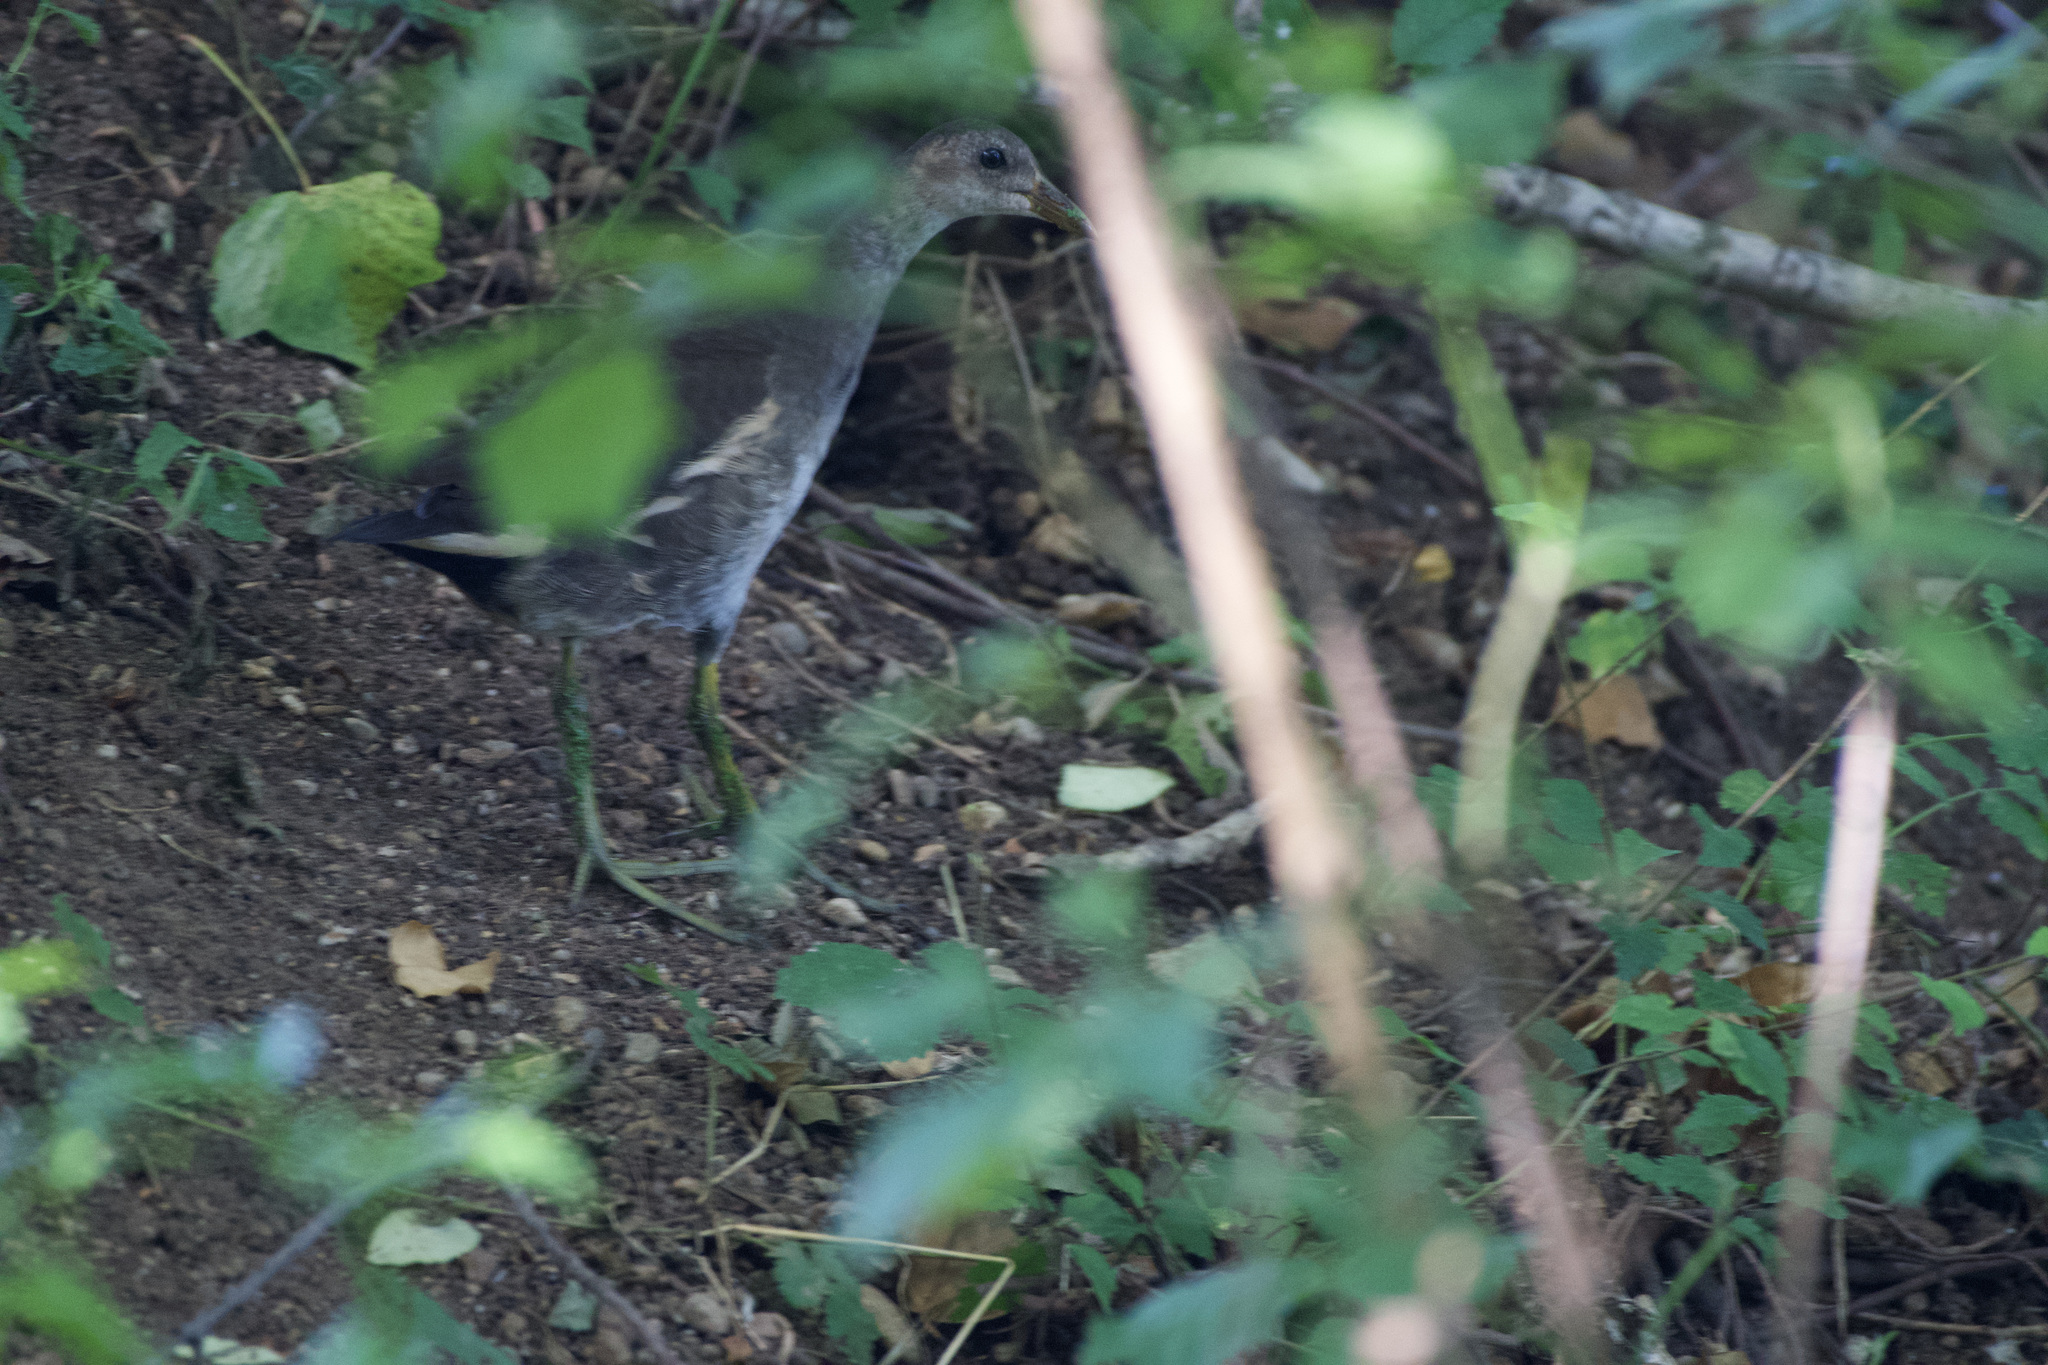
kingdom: Animalia
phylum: Chordata
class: Aves
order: Gruiformes
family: Rallidae
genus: Gallinula
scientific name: Gallinula chloropus
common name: Common moorhen
